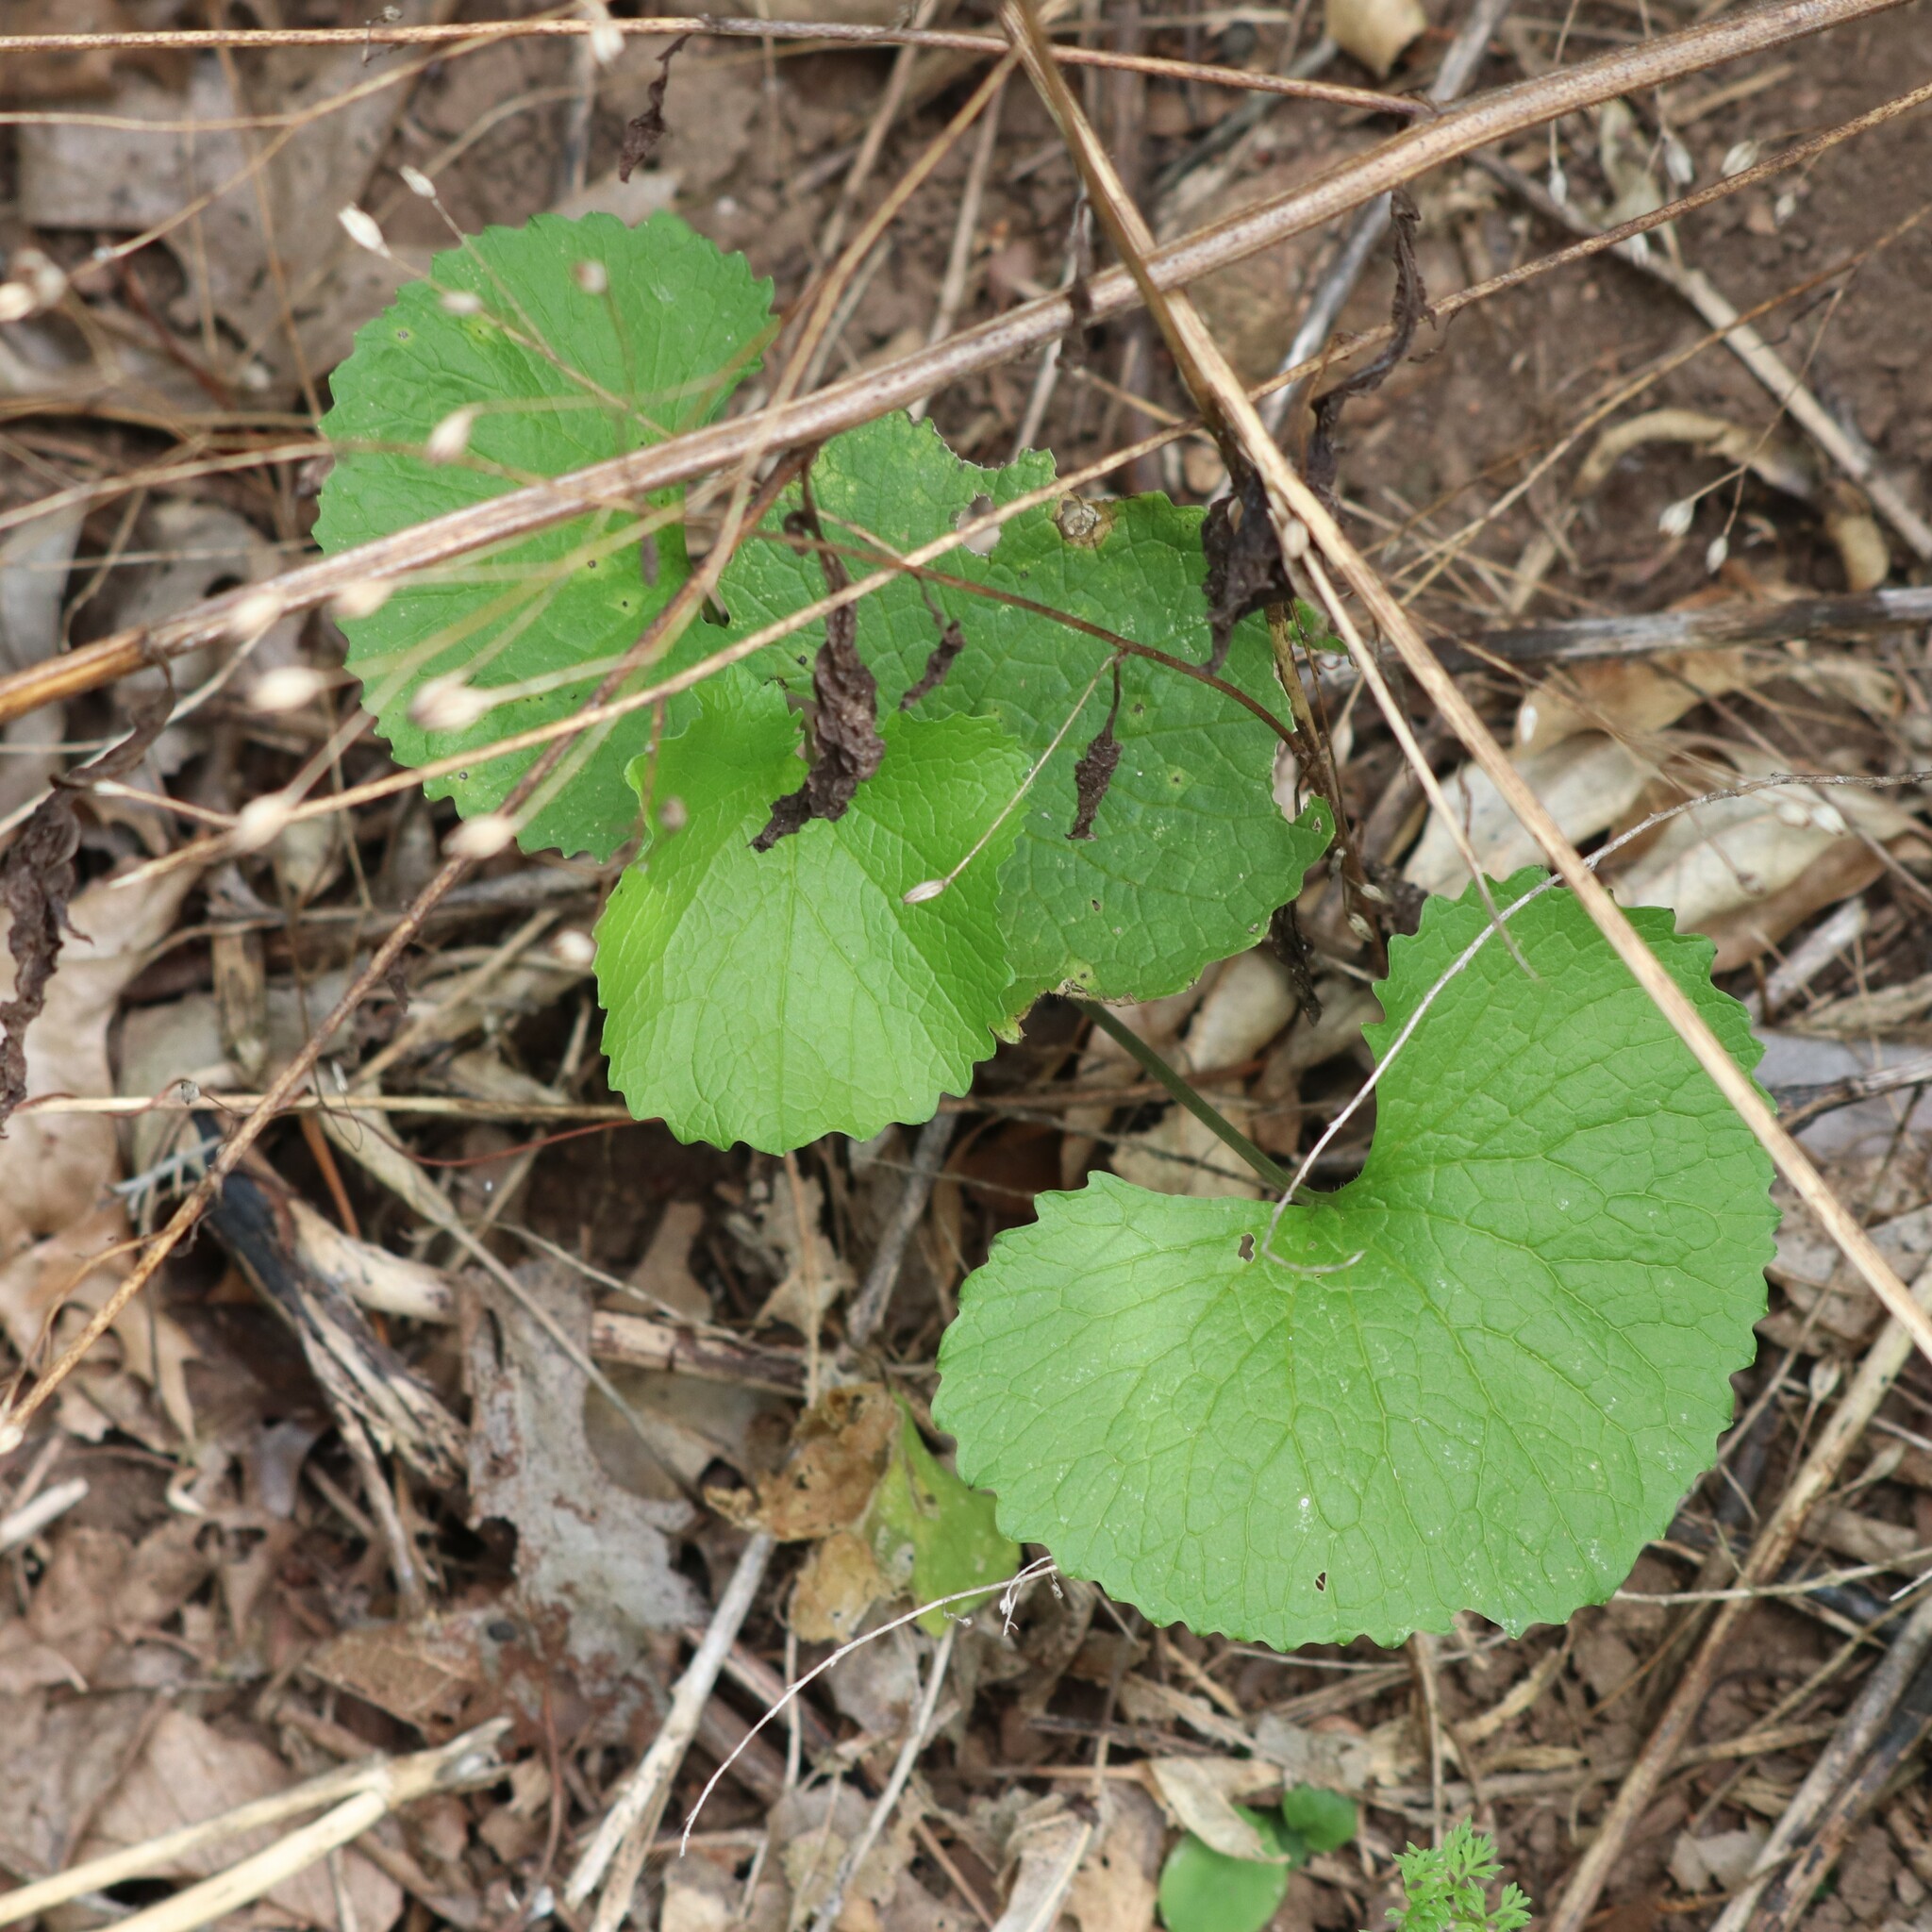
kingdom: Plantae
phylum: Tracheophyta
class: Magnoliopsida
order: Brassicales
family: Brassicaceae
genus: Alliaria
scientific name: Alliaria petiolata
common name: Garlic mustard
